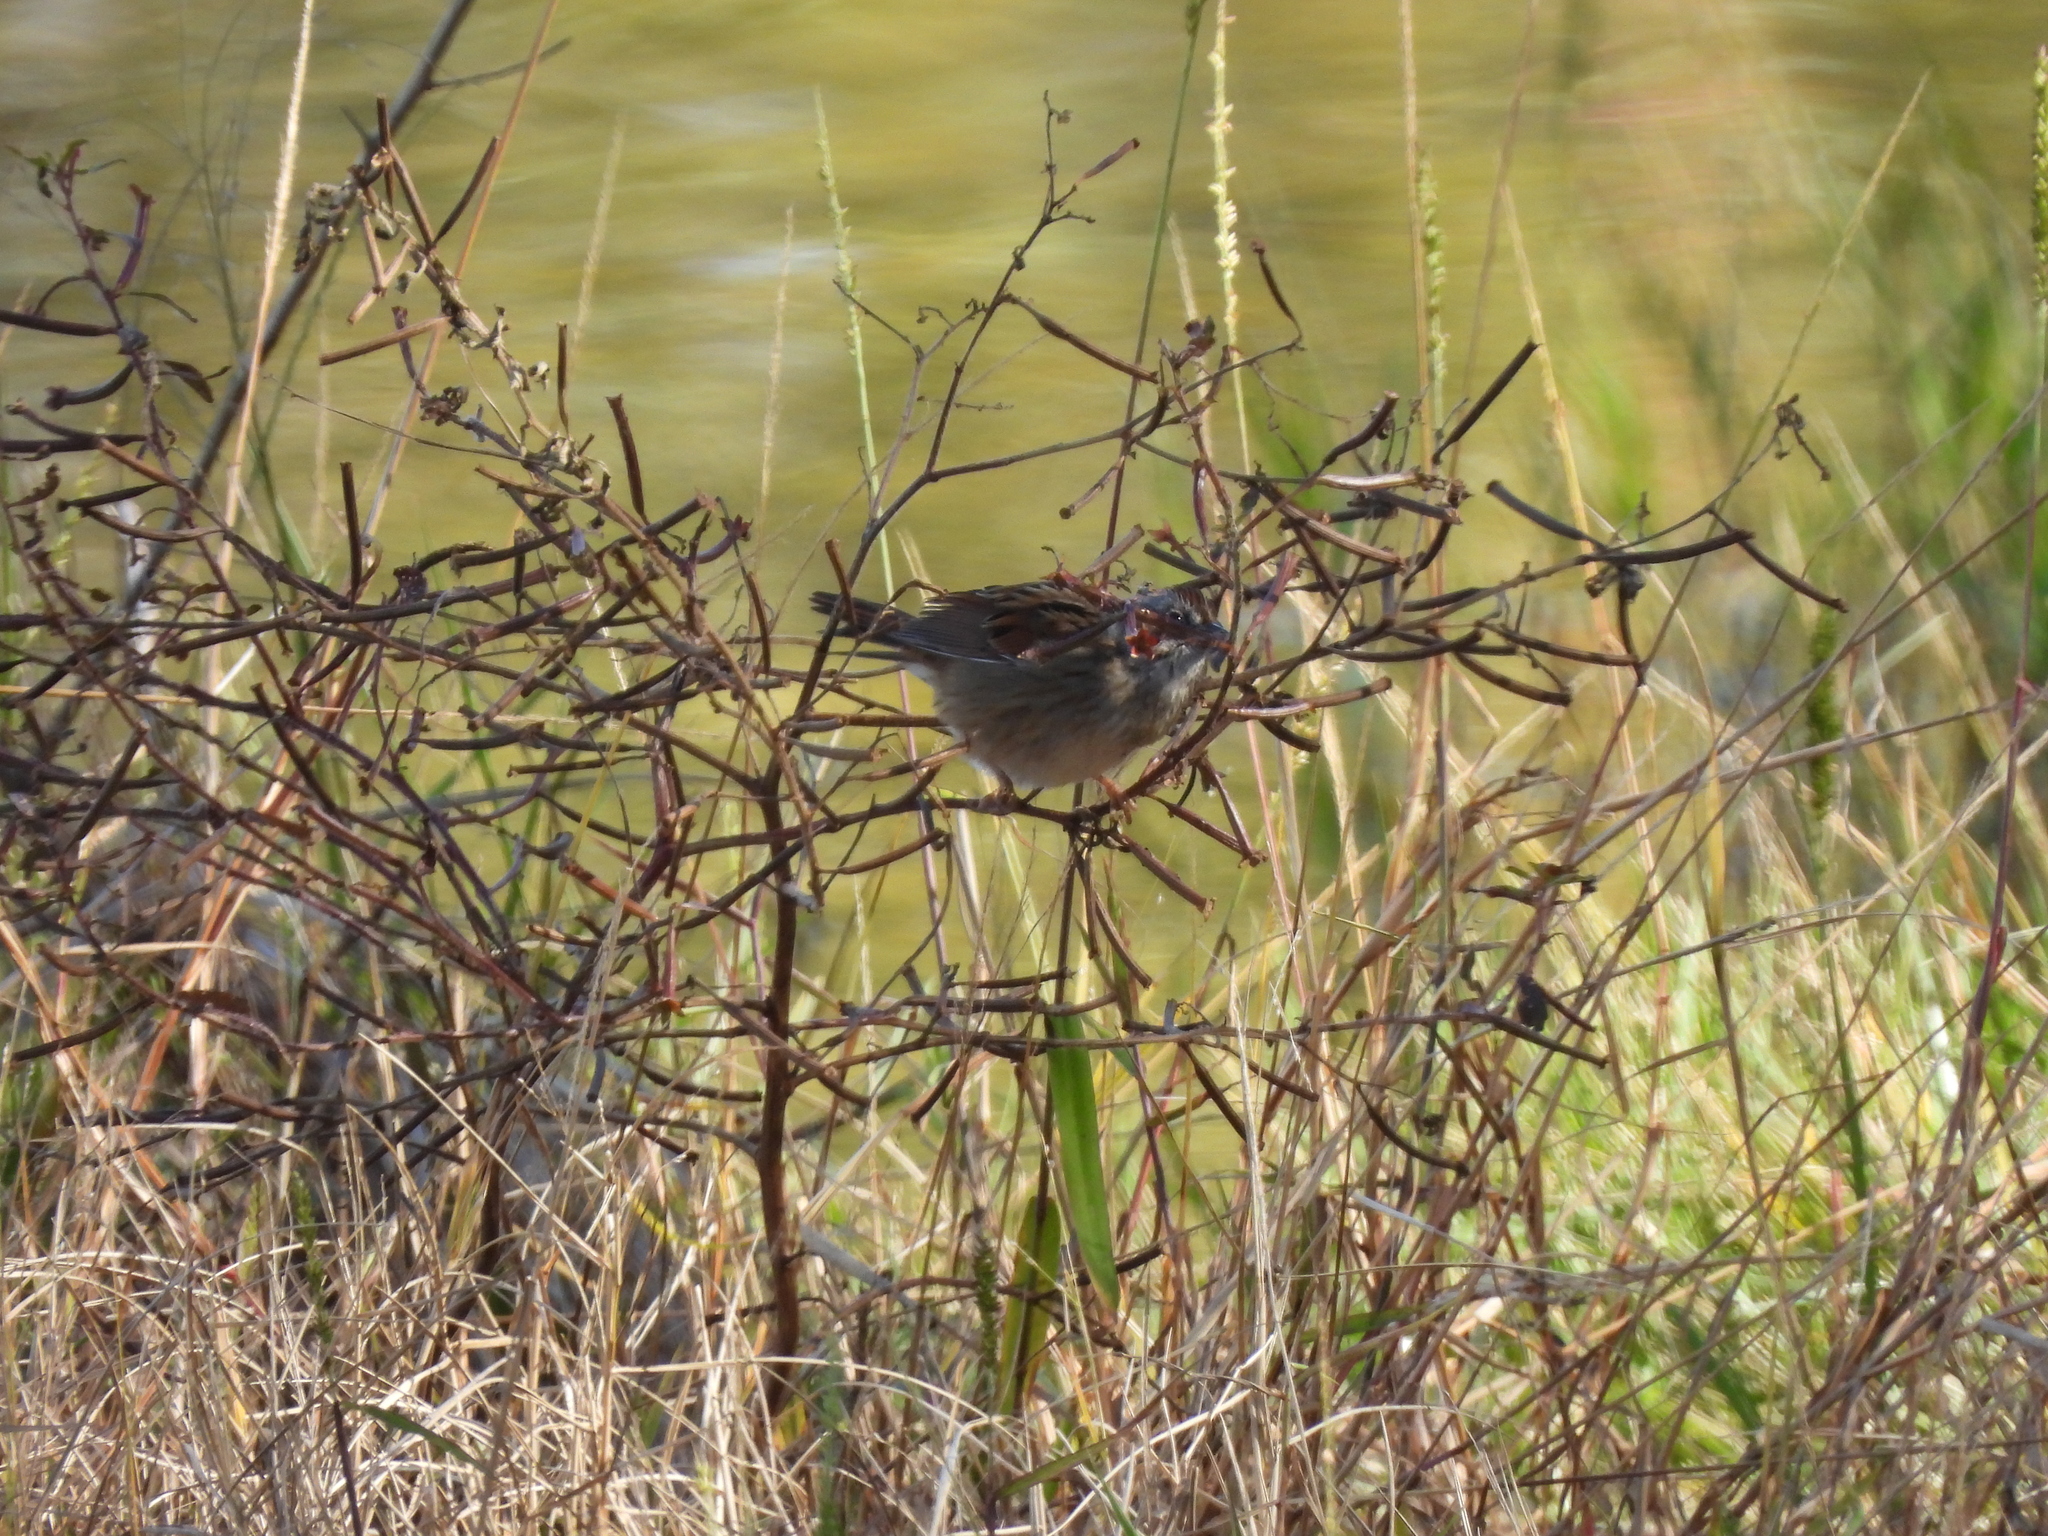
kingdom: Animalia
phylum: Chordata
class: Aves
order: Passeriformes
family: Passerellidae
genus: Melospiza
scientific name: Melospiza georgiana
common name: Swamp sparrow
